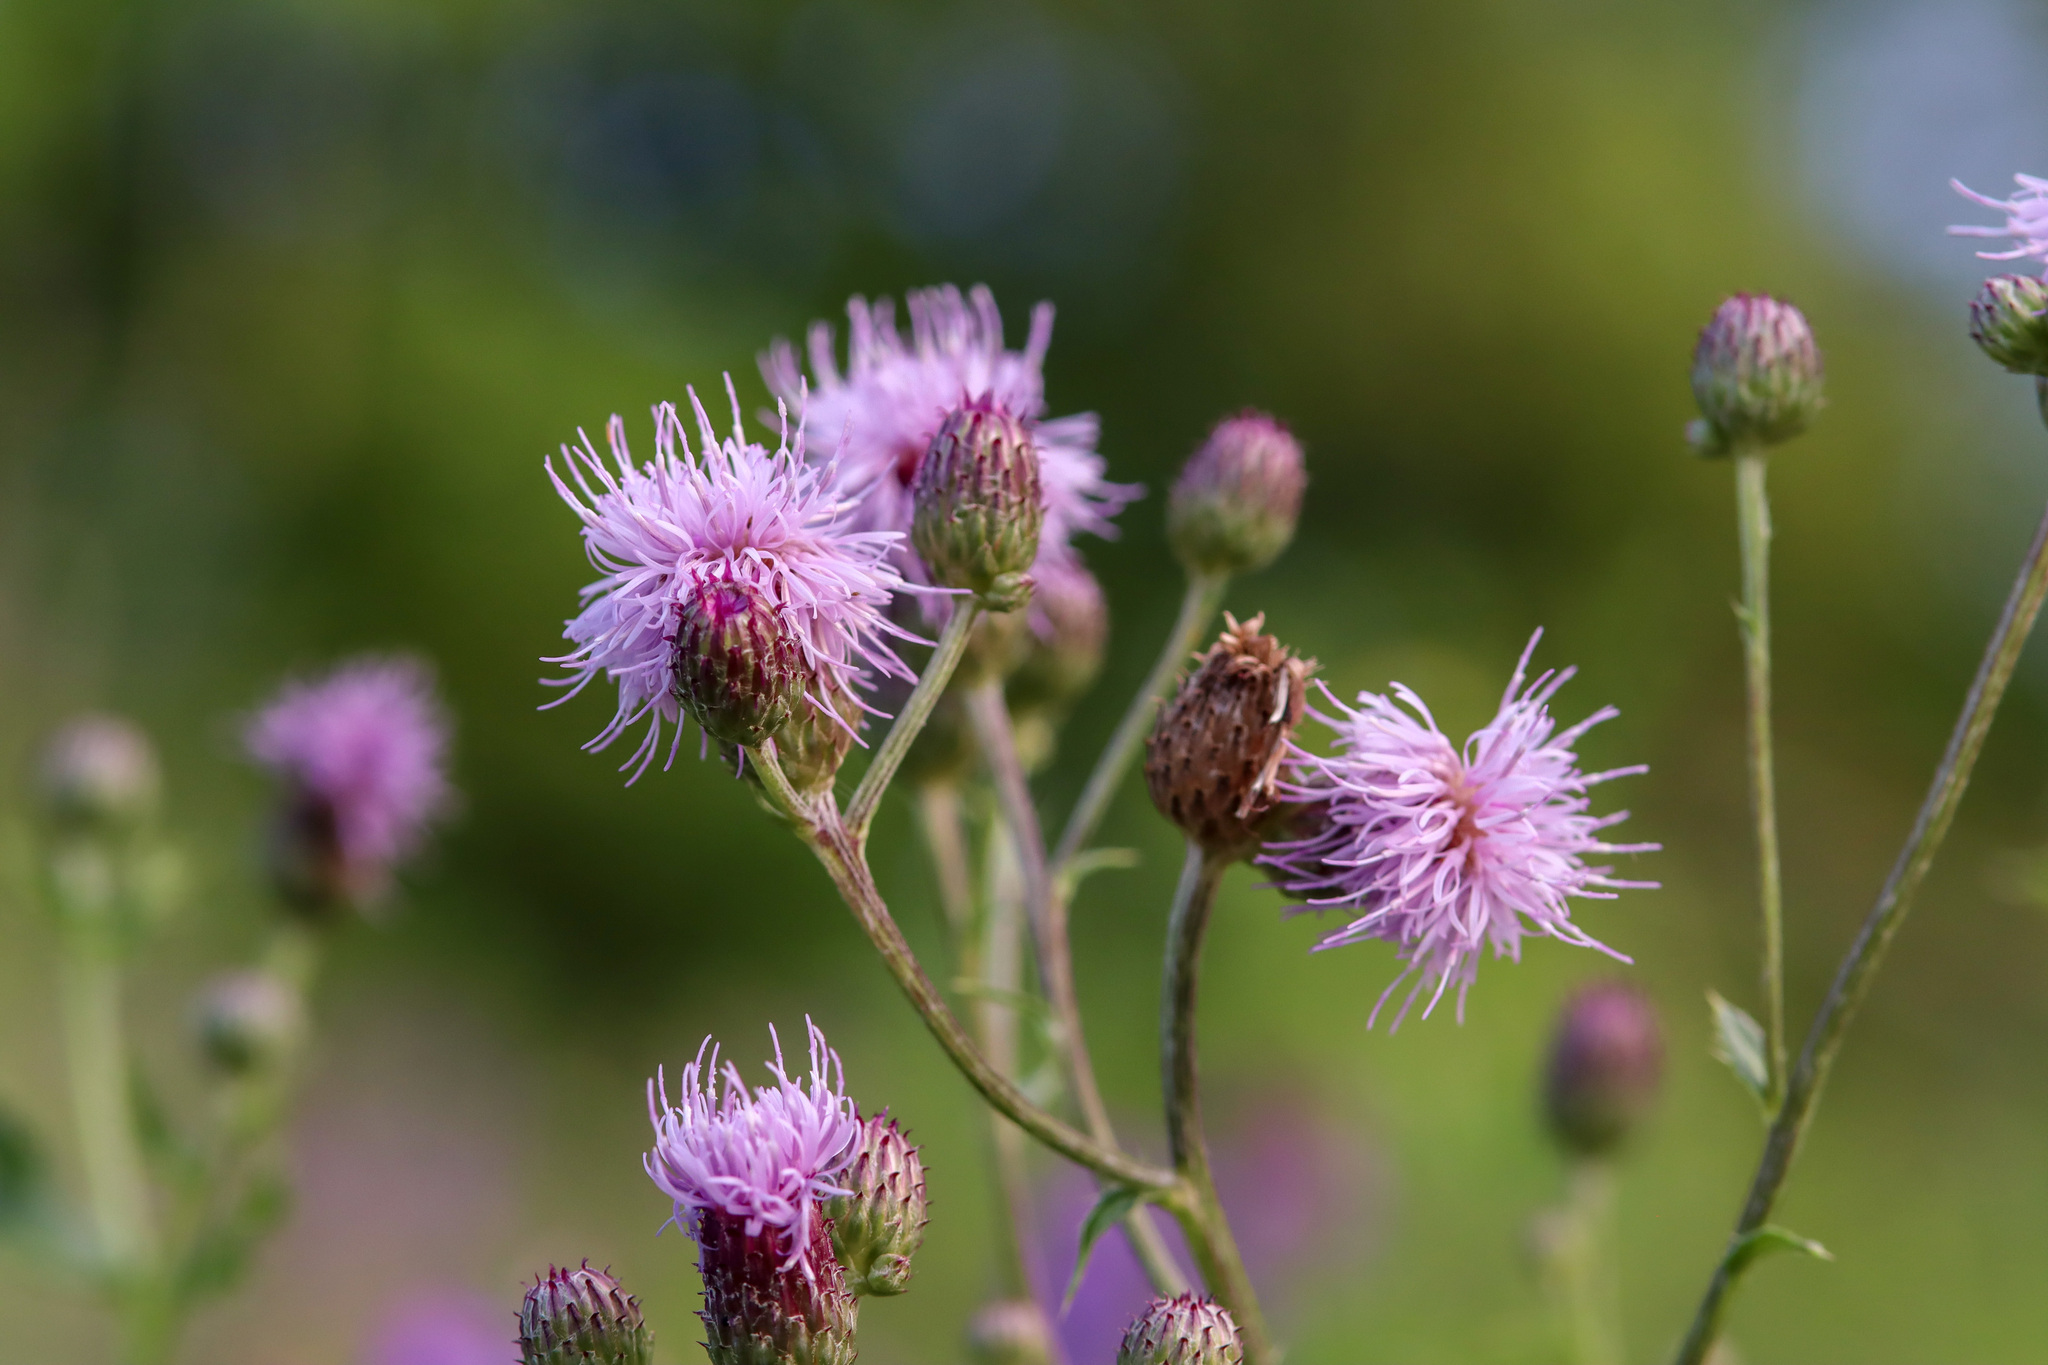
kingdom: Plantae
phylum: Tracheophyta
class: Magnoliopsida
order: Asterales
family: Asteraceae
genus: Cirsium
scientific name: Cirsium arvense
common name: Creeping thistle
